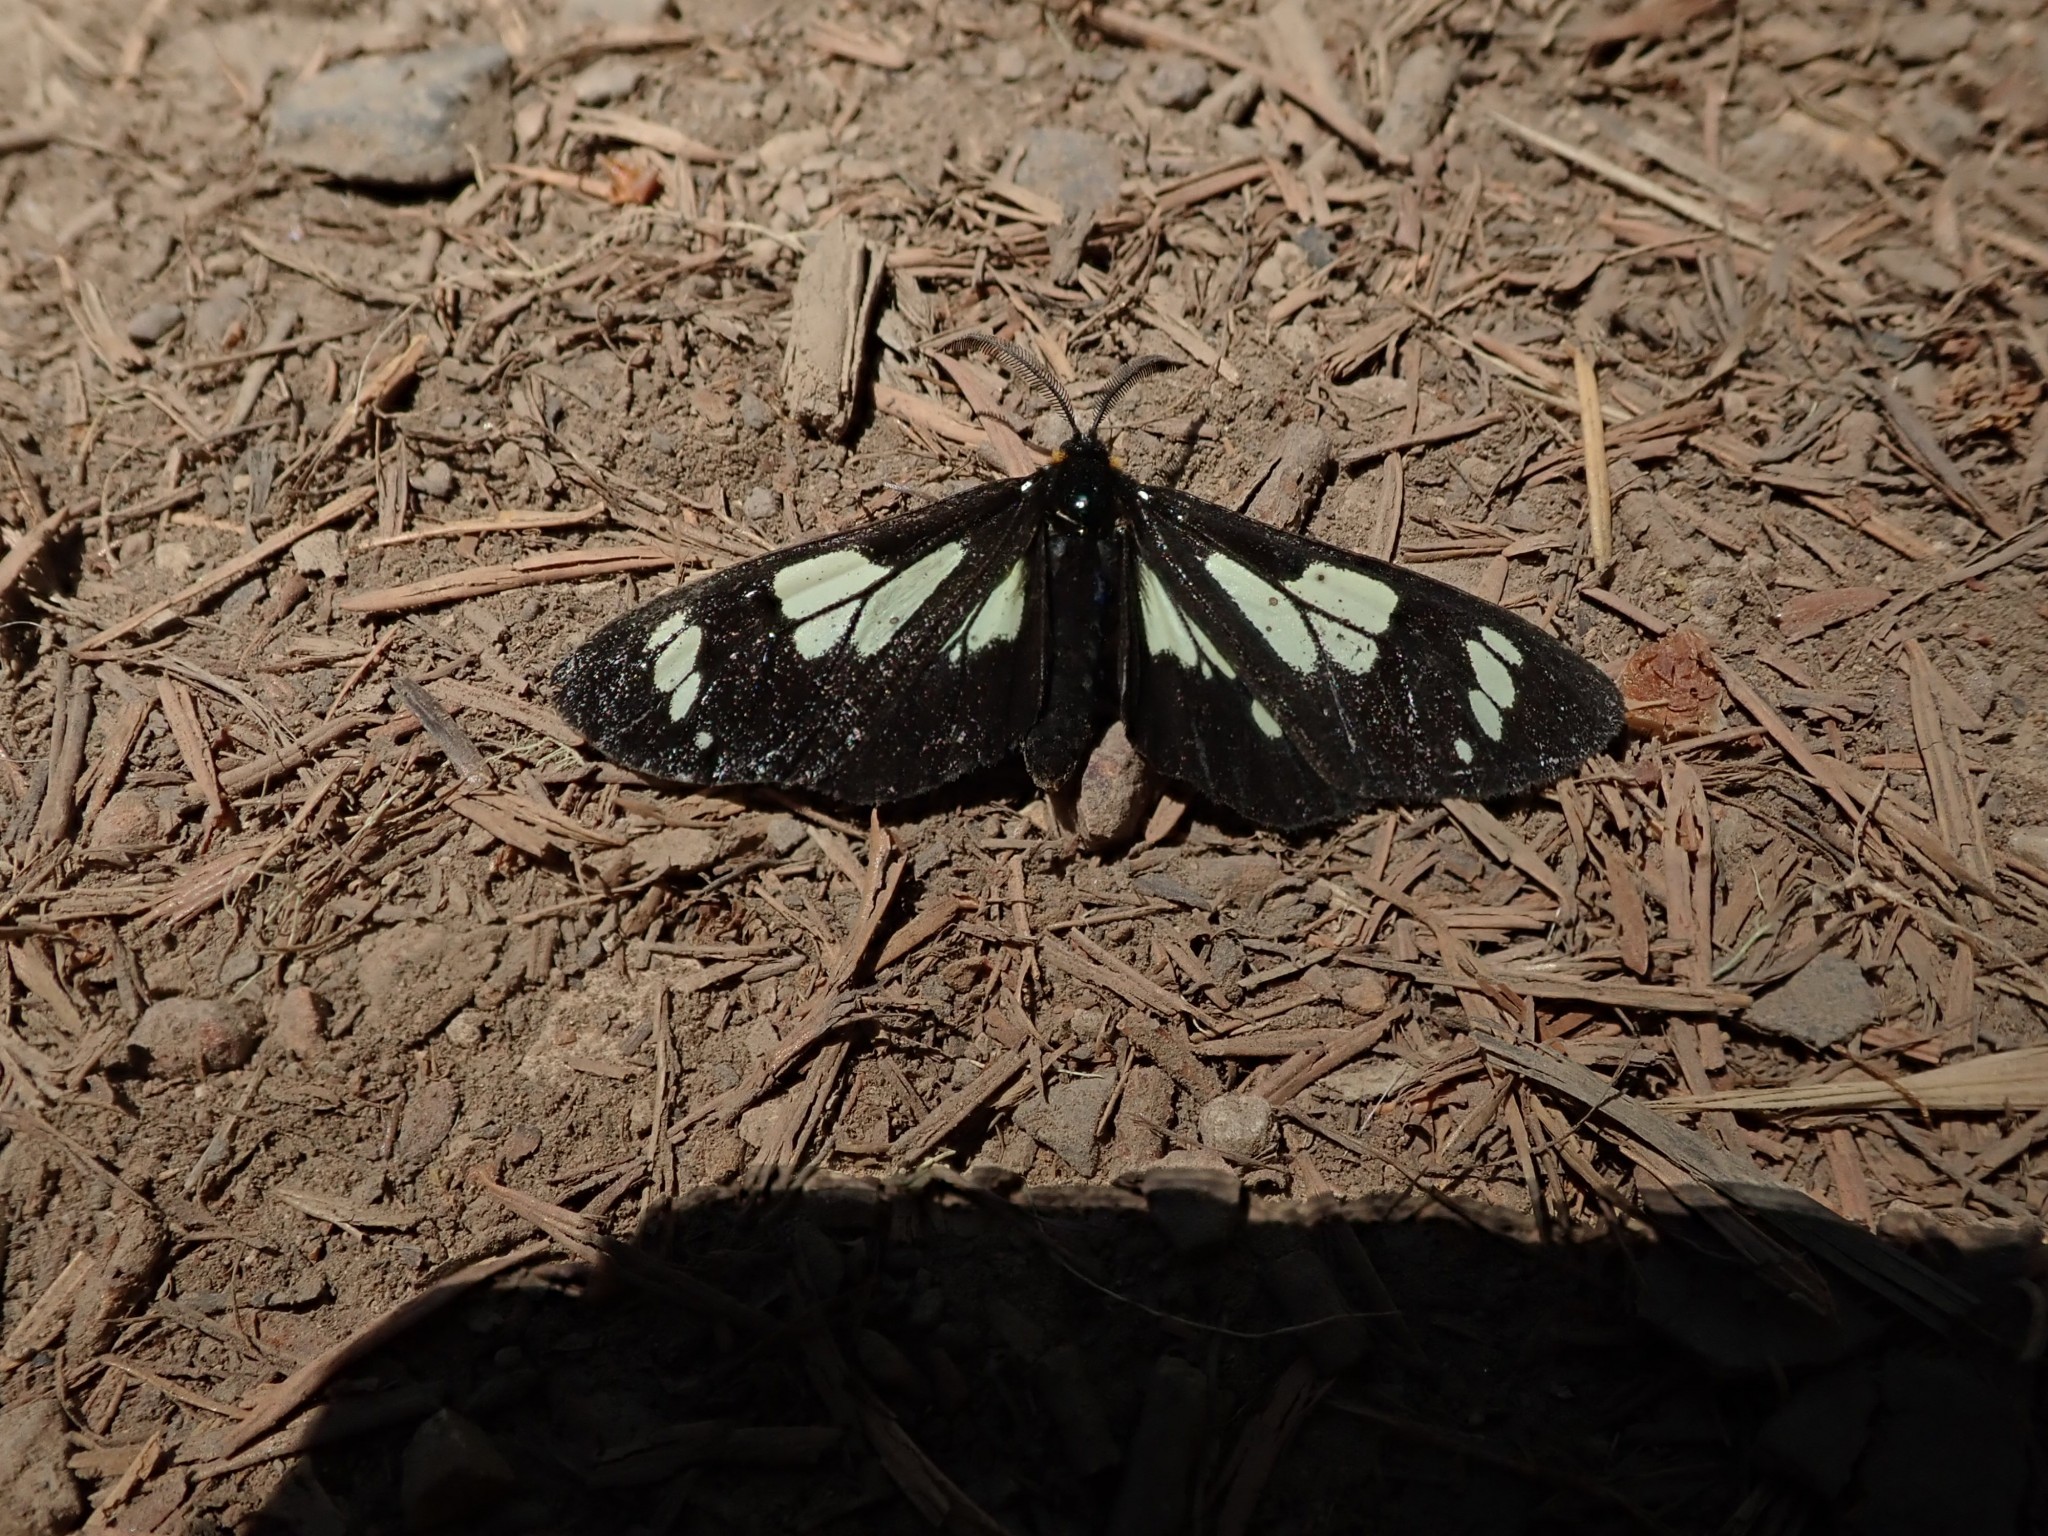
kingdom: Animalia
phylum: Arthropoda
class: Insecta
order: Lepidoptera
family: Erebidae
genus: Gnophaela
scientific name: Gnophaela latipennis
